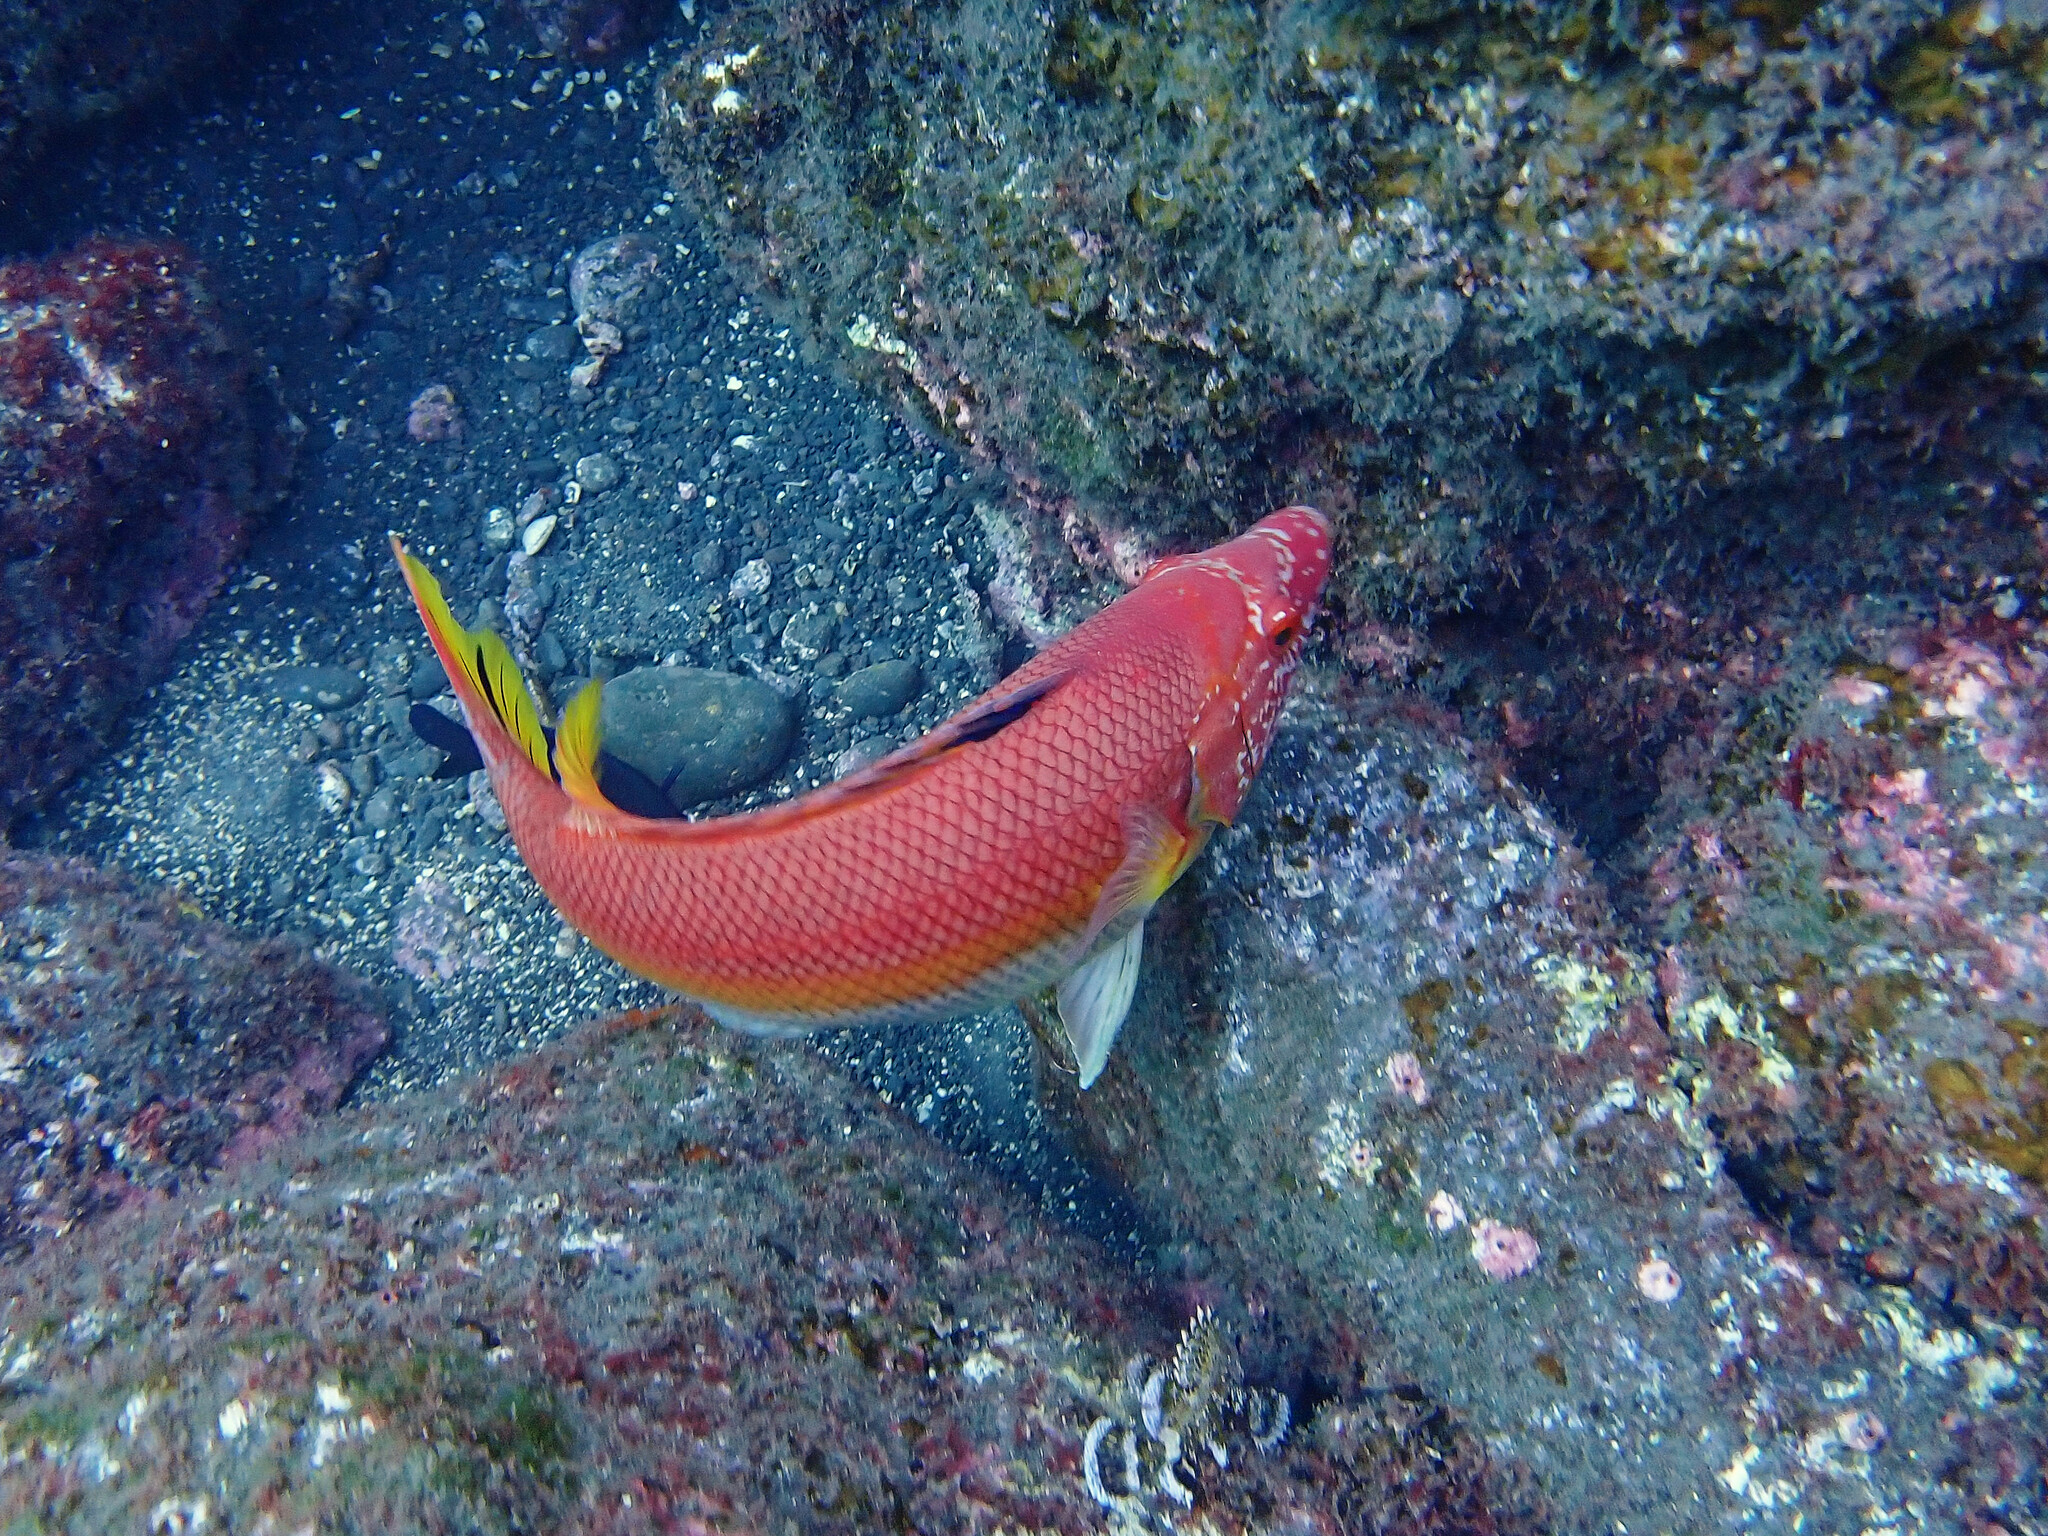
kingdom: Animalia
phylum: Chordata
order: Perciformes
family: Labridae
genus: Bodianus
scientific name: Bodianus scrofa
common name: Barred hogfish
